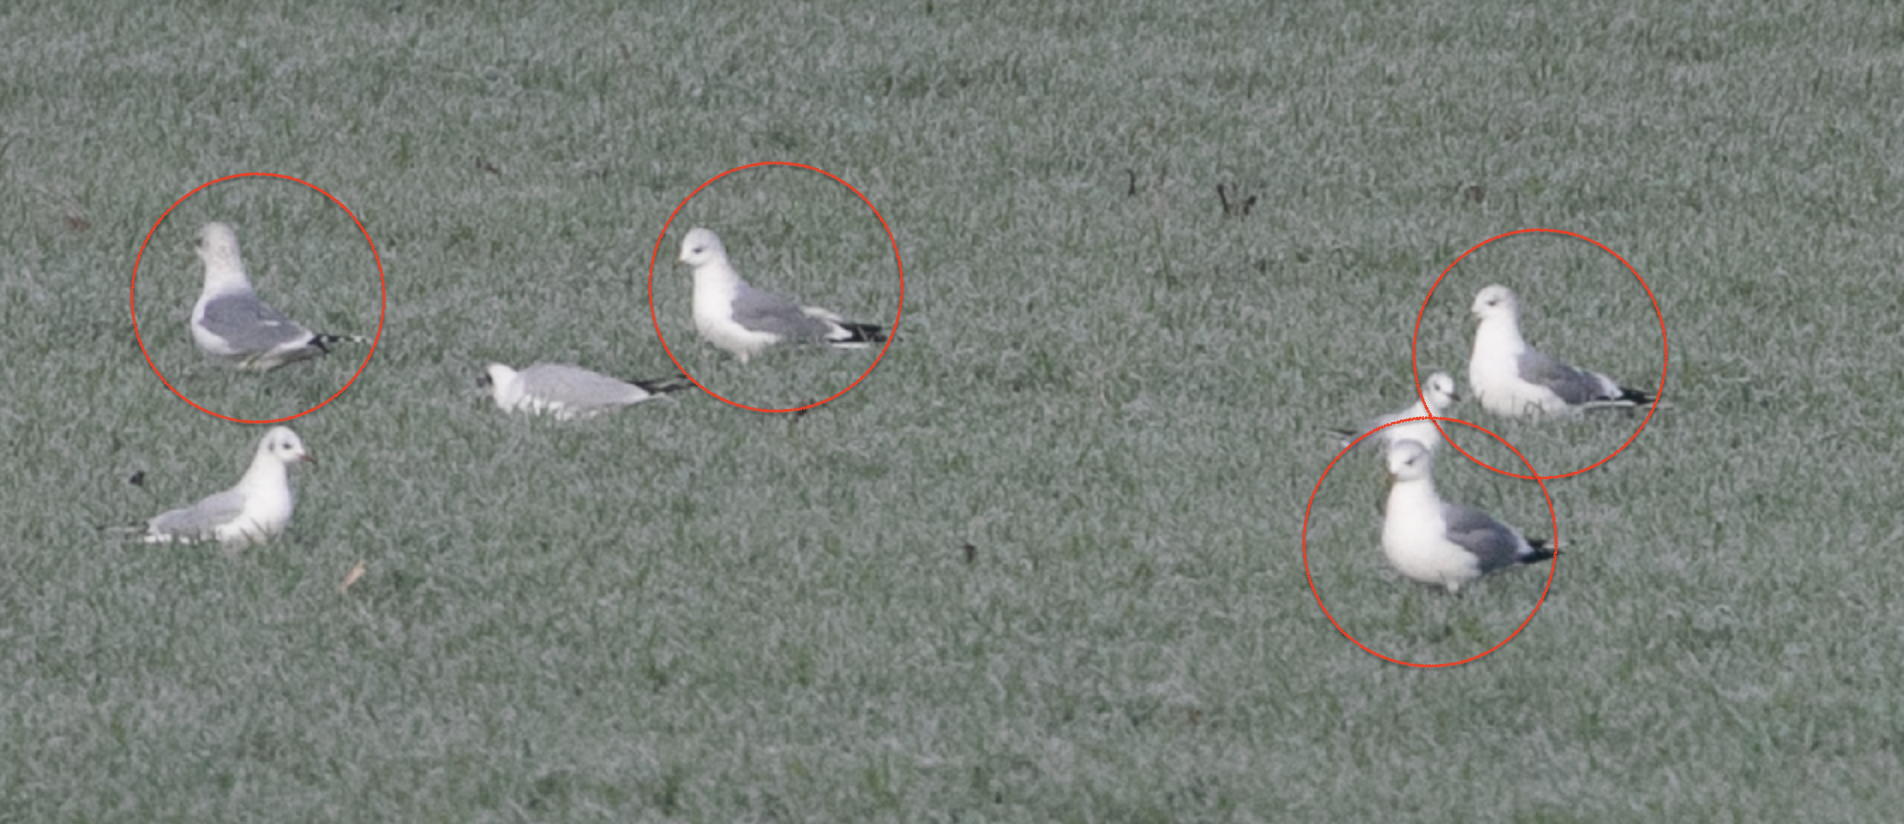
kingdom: Animalia
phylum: Chordata
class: Aves
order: Charadriiformes
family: Laridae
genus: Larus
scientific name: Larus canus
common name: Mew gull
